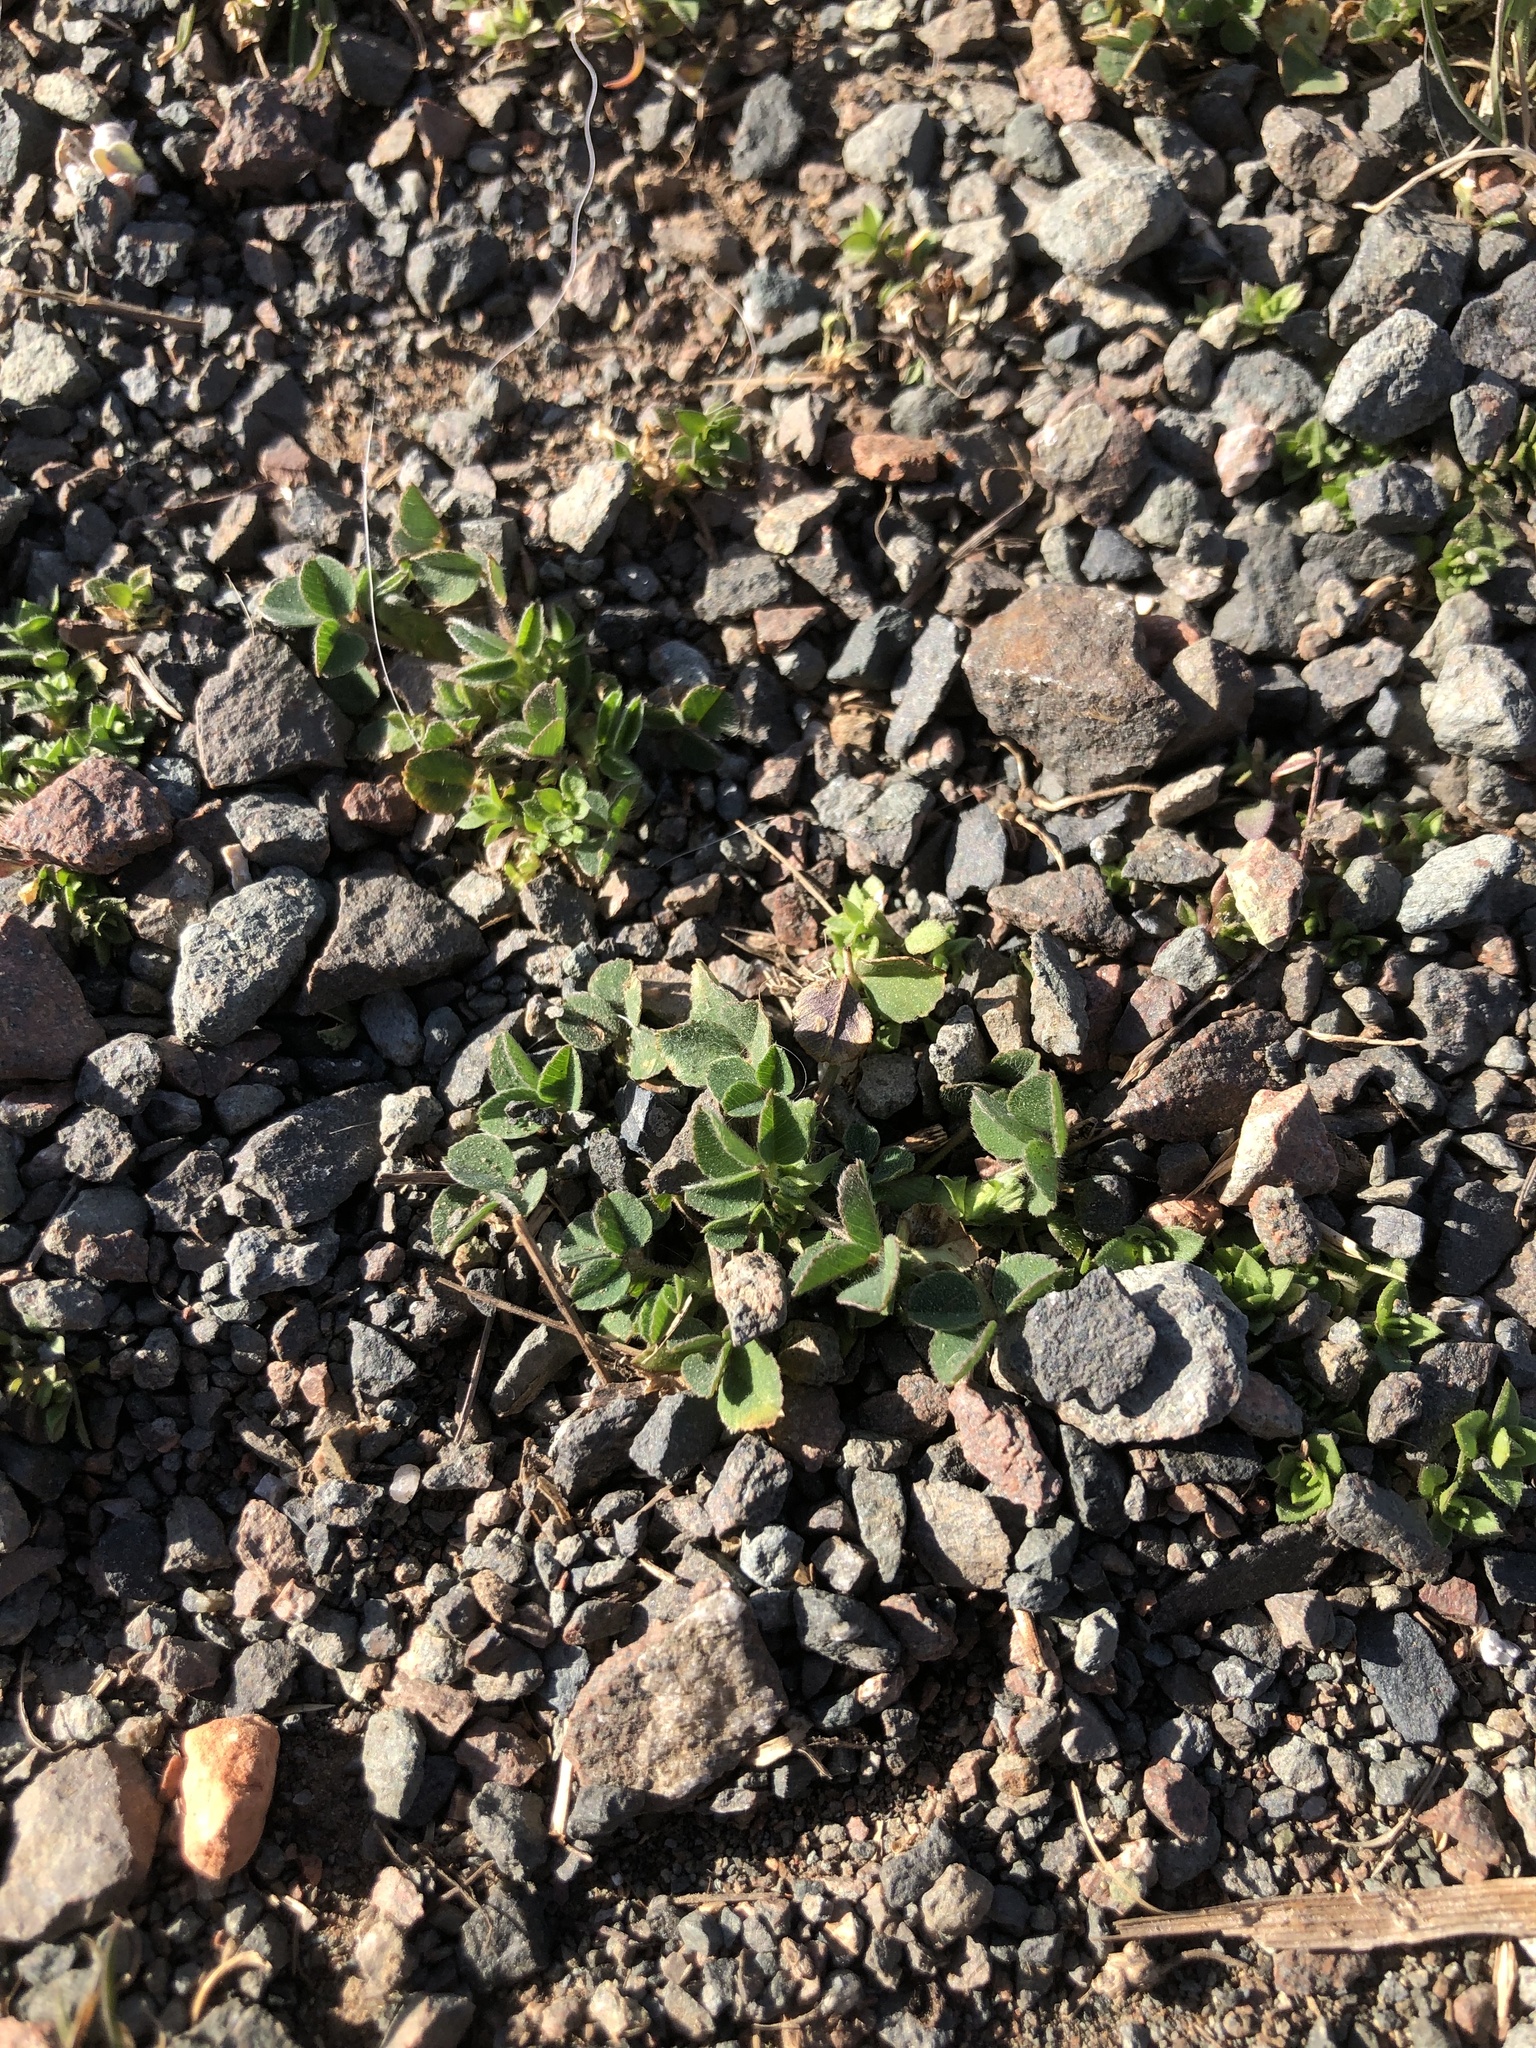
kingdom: Plantae
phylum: Tracheophyta
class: Magnoliopsida
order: Fabales
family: Fabaceae
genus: Medicago
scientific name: Medicago lupulina
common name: Black medick
